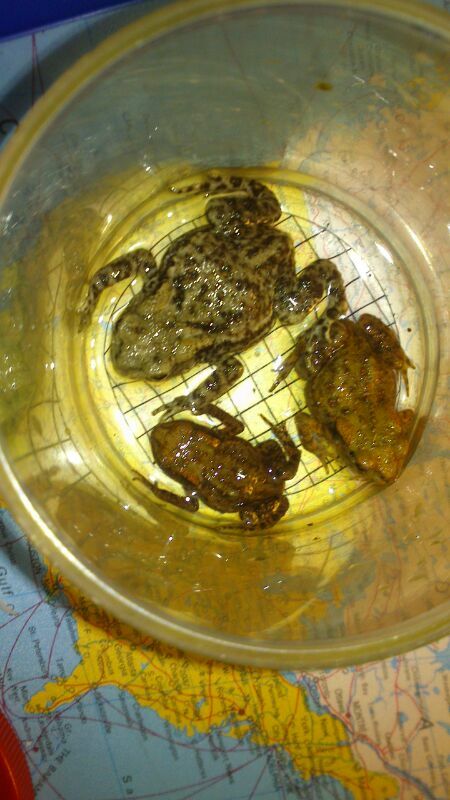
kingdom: Animalia
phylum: Chordata
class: Amphibia
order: Anura
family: Bufonidae
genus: Bufo
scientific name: Bufo bufo
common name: Common toad
